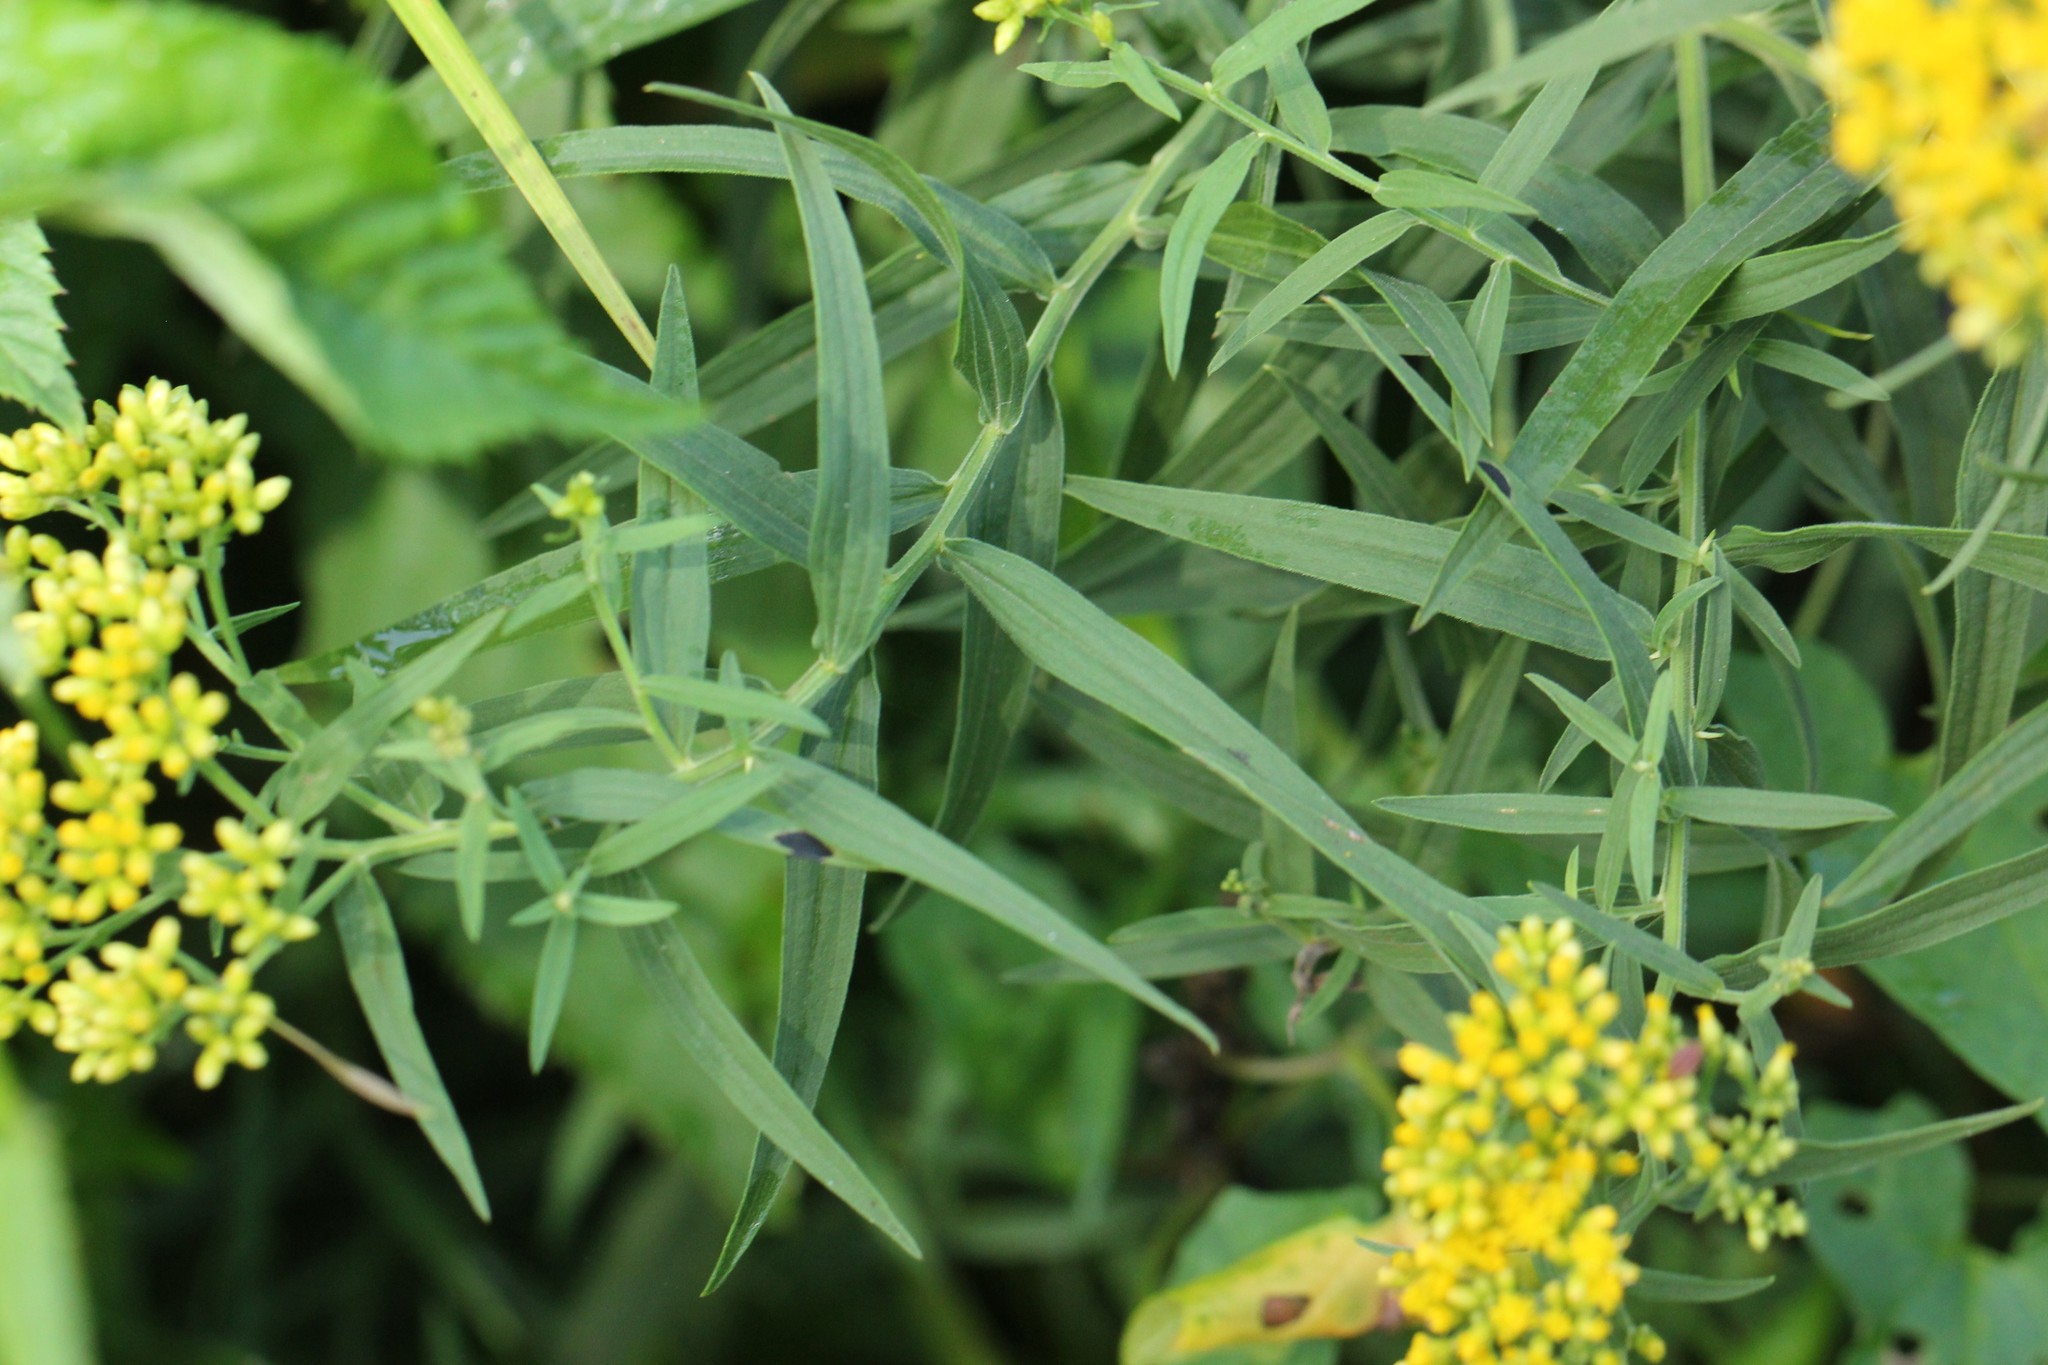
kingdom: Plantae
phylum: Tracheophyta
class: Magnoliopsida
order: Asterales
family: Asteraceae
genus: Euthamia
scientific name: Euthamia graminifolia
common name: Common goldentop
